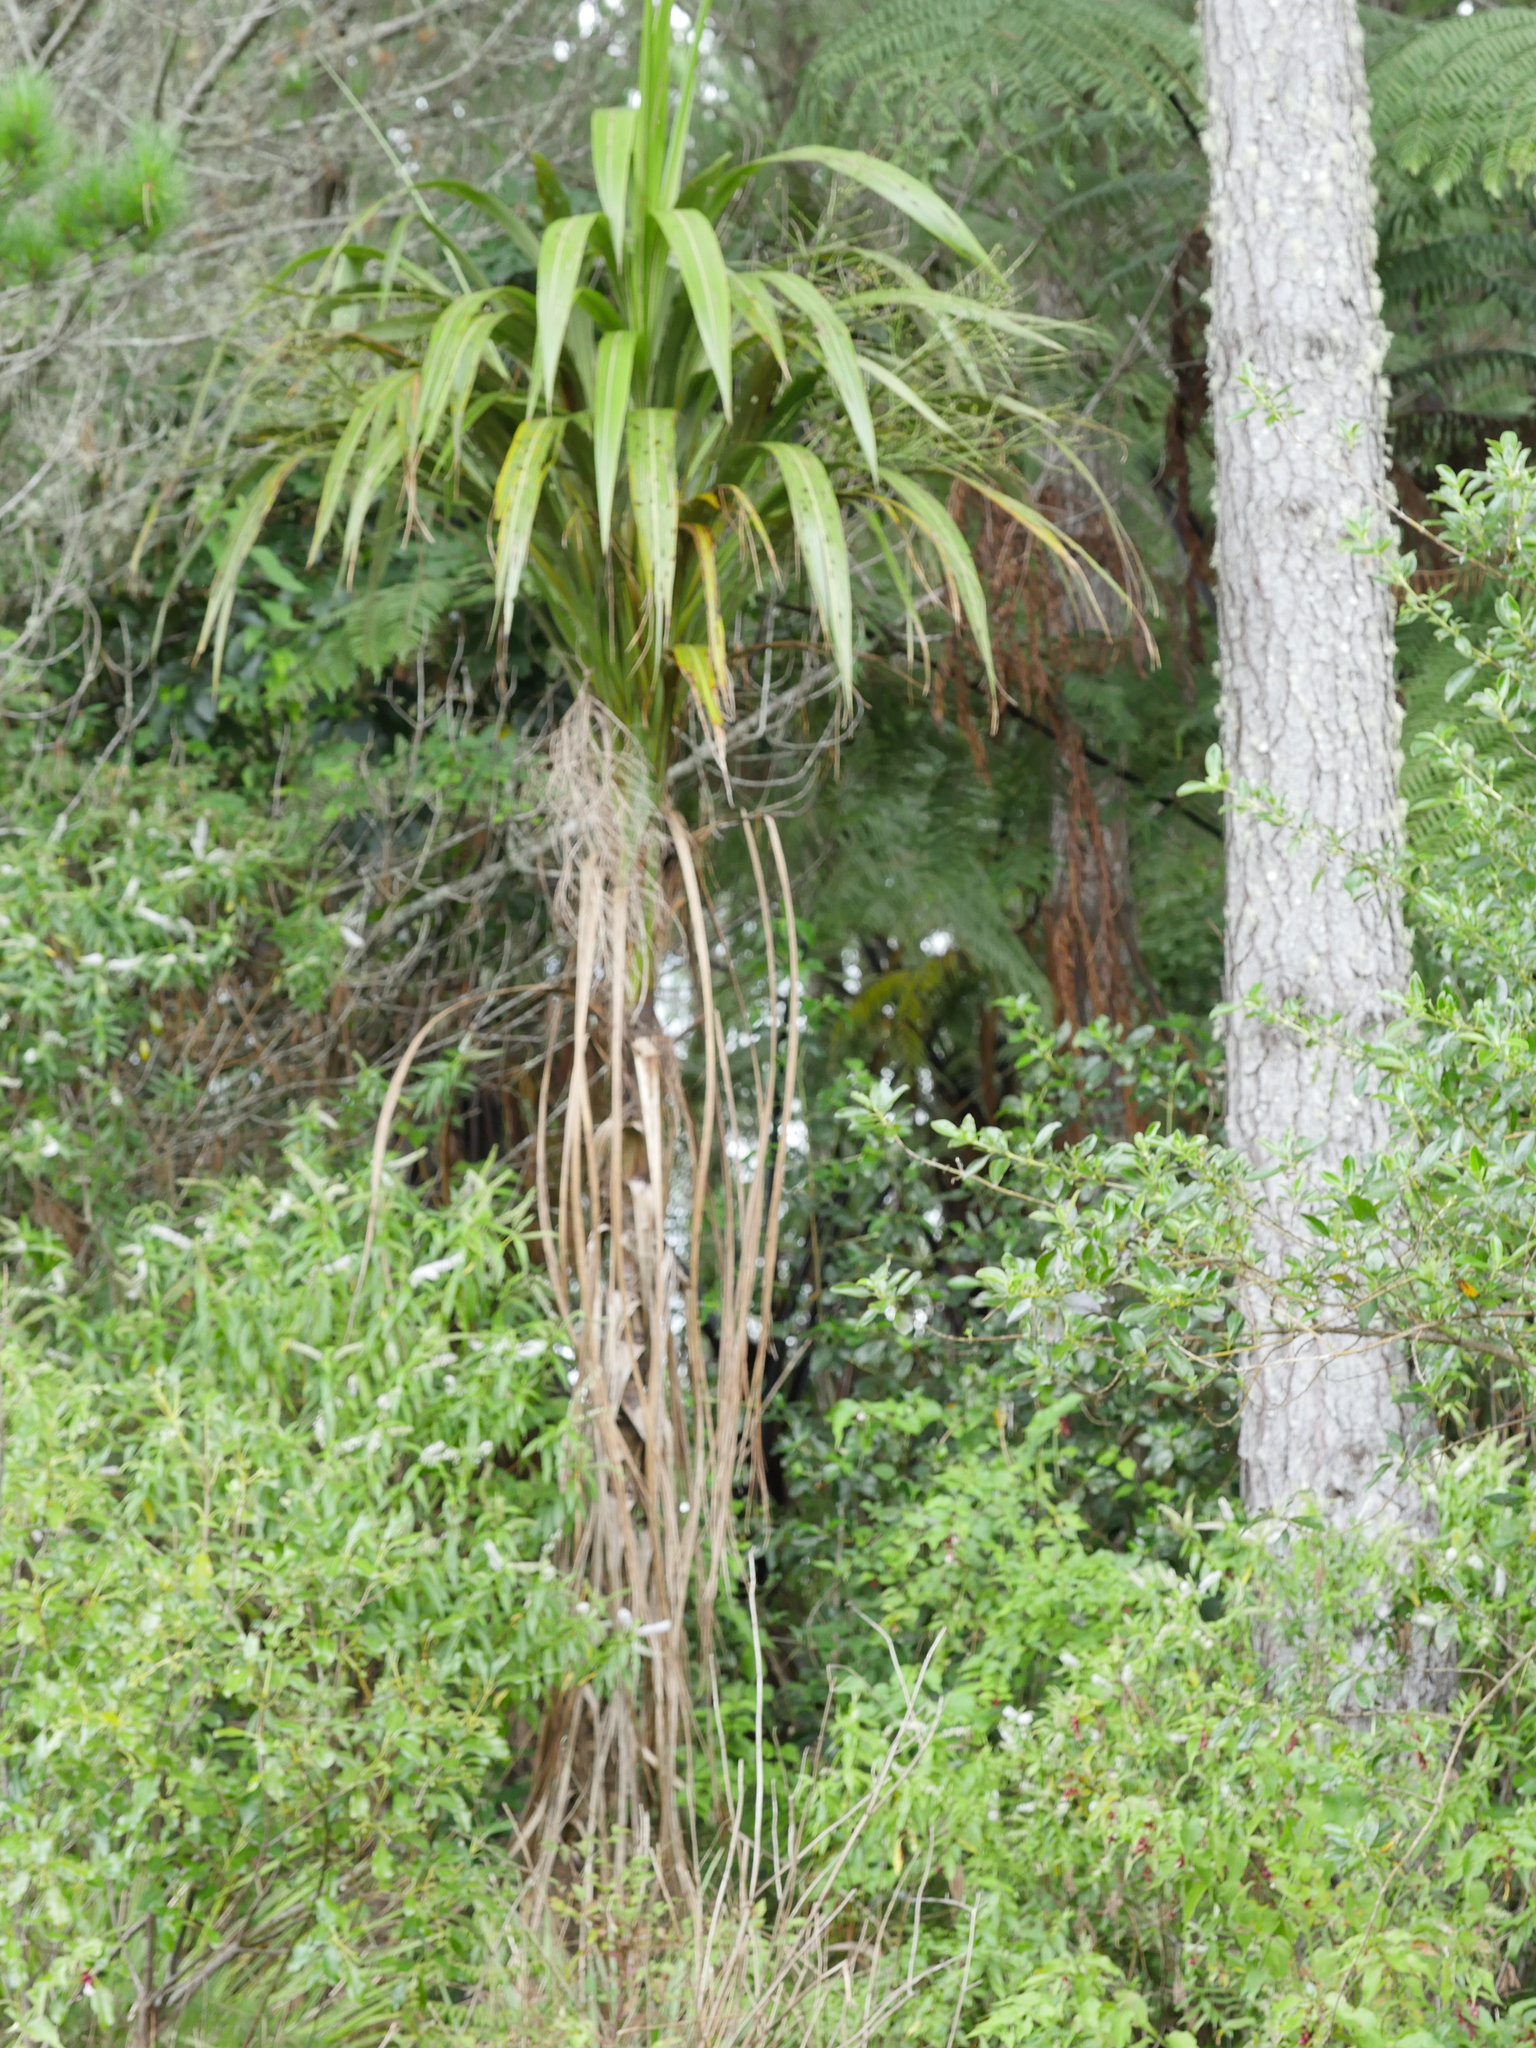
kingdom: Plantae
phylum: Tracheophyta
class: Liliopsida
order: Asparagales
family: Asparagaceae
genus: Cordyline
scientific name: Cordyline banksii
